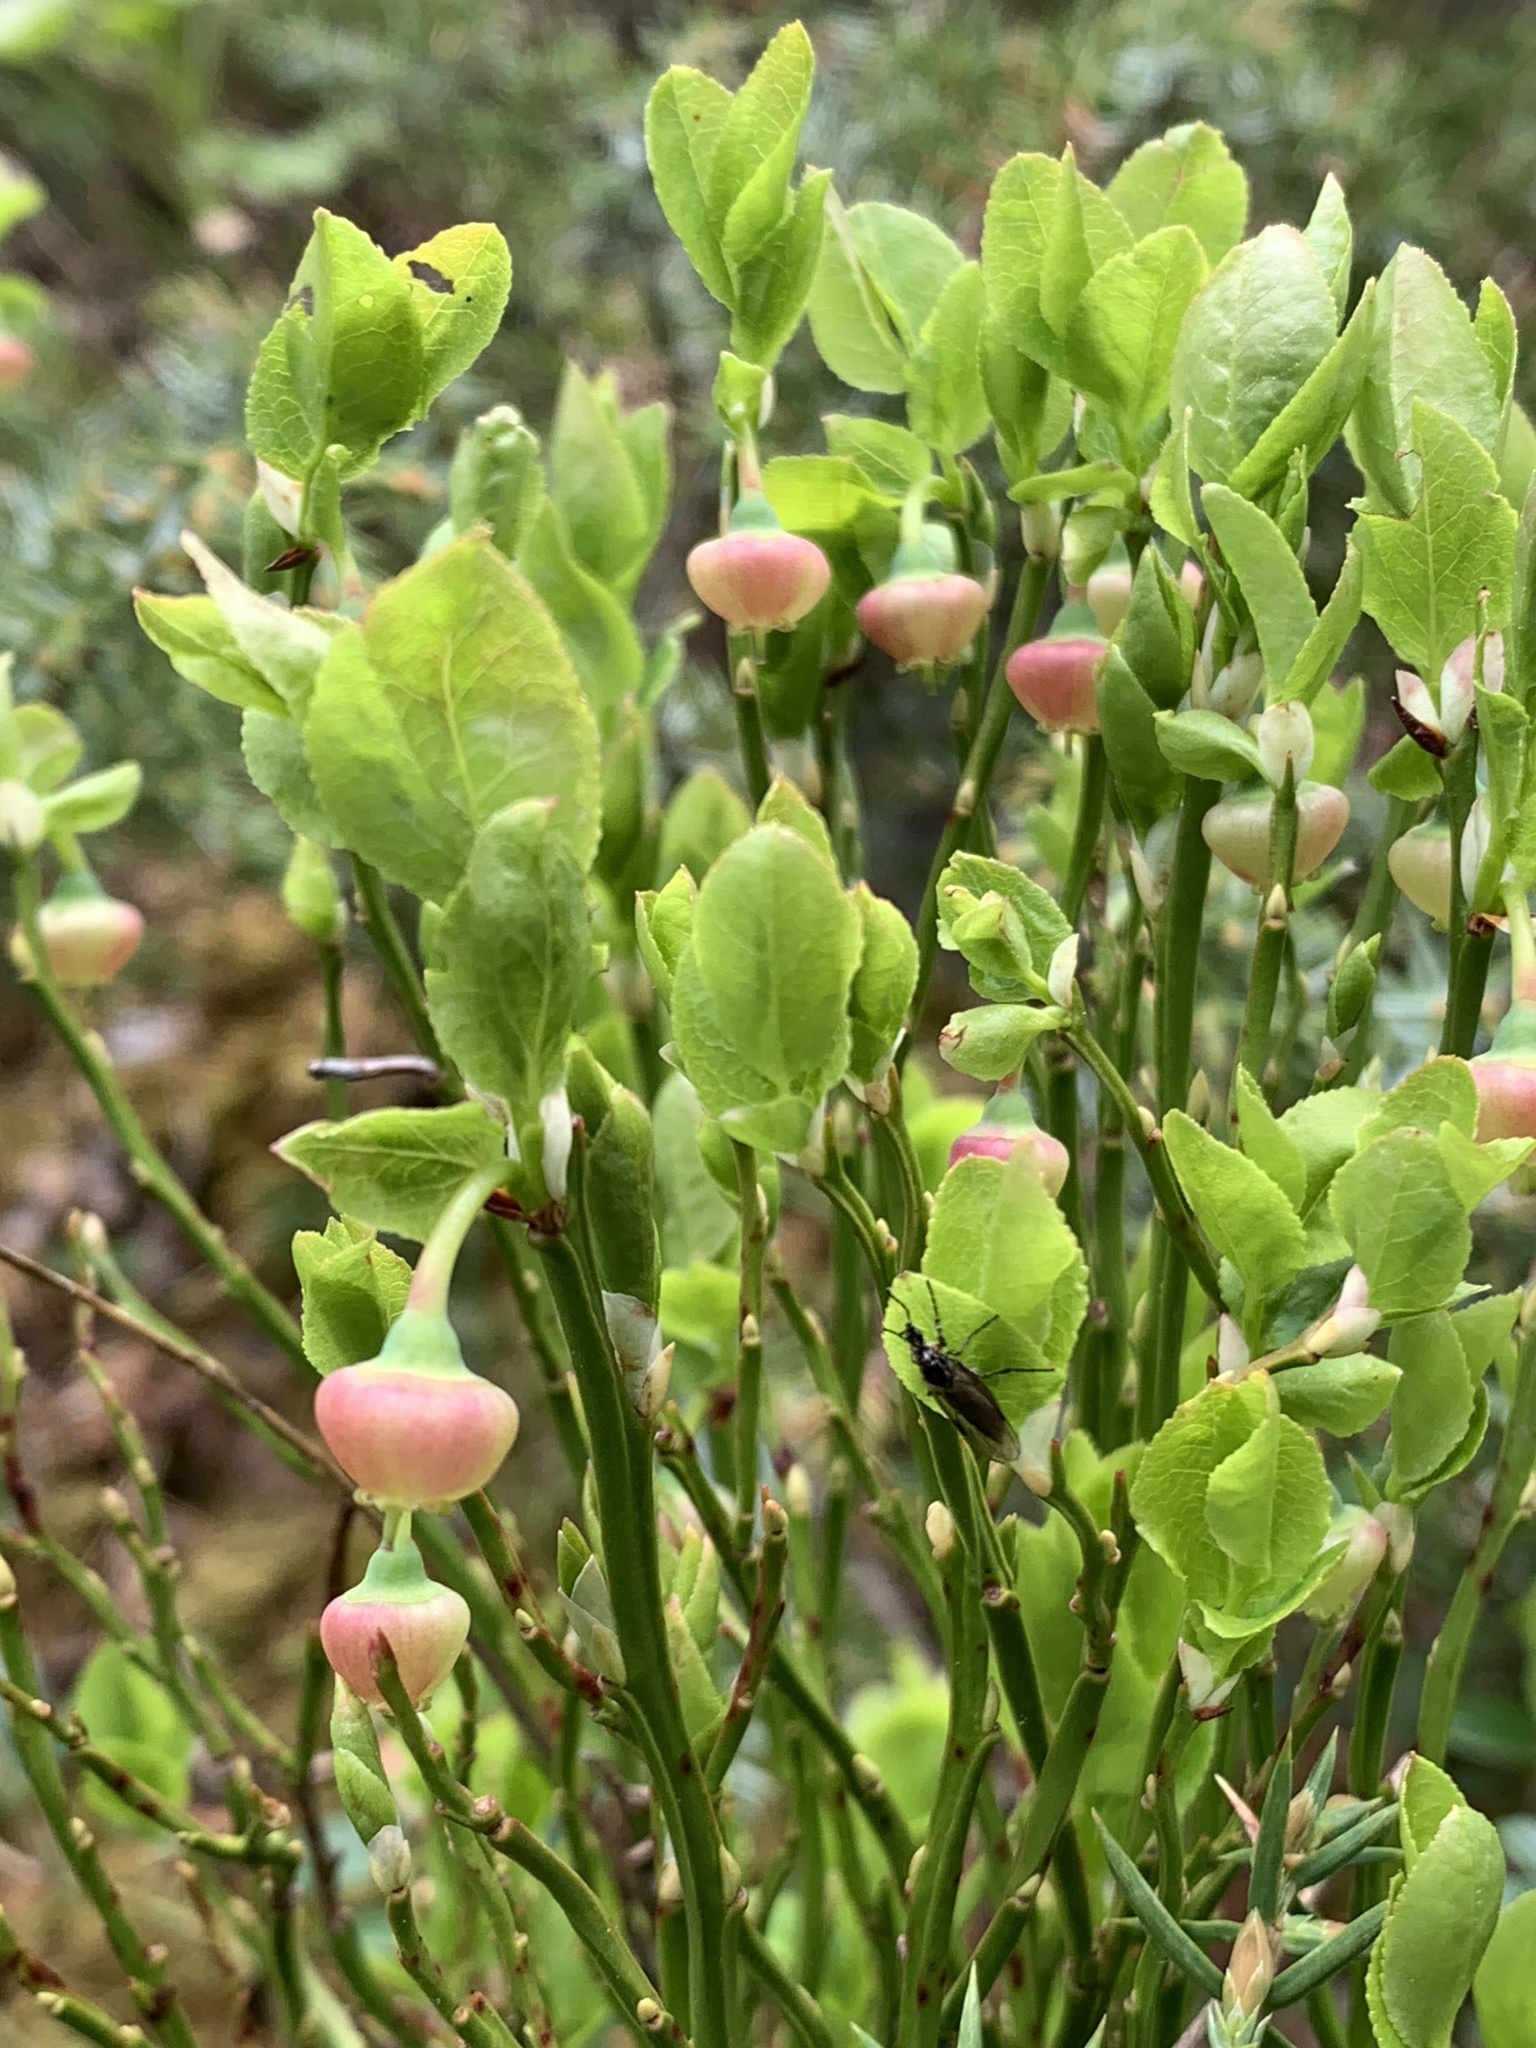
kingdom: Plantae
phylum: Tracheophyta
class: Magnoliopsida
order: Ericales
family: Ericaceae
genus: Vaccinium
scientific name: Vaccinium myrtillus
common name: Bilberry
